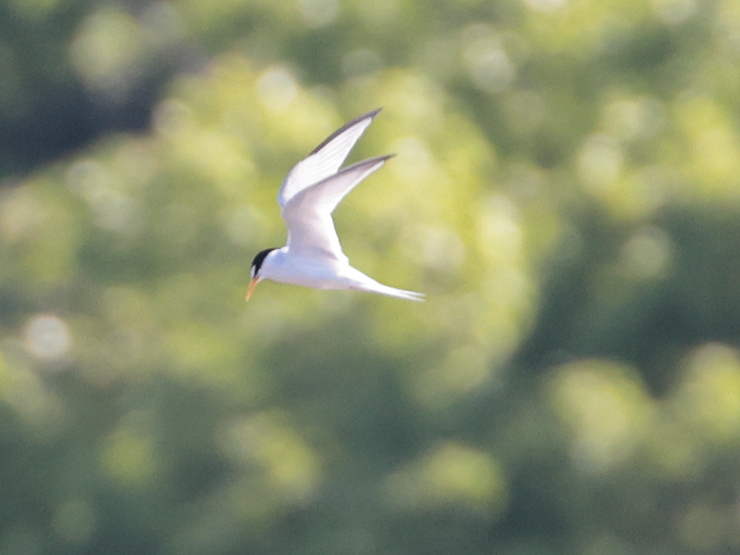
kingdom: Animalia
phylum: Chordata
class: Aves
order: Charadriiformes
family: Laridae
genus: Sternula
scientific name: Sternula antillarum
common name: Least tern
